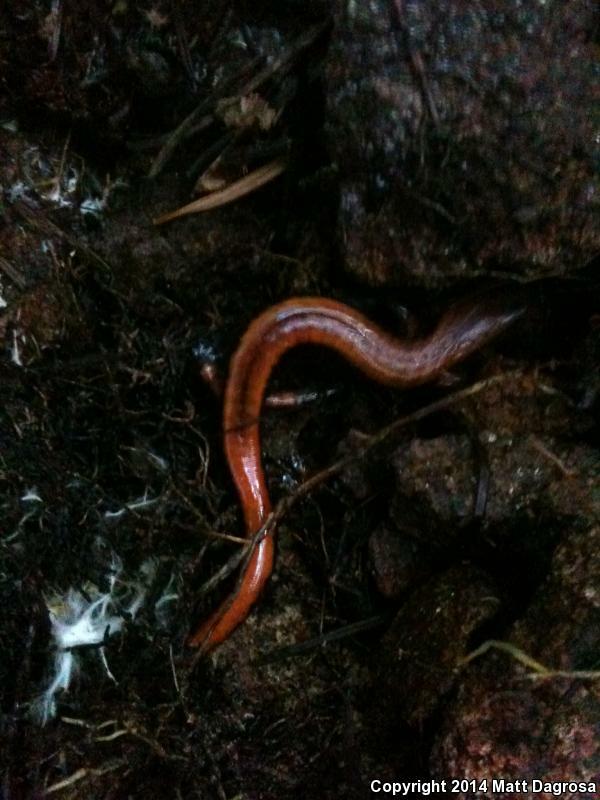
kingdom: Animalia
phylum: Chordata
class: Amphibia
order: Caudata
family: Plethodontidae
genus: Plethodon
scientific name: Plethodon vehiculum
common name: Western red-backed salamander
